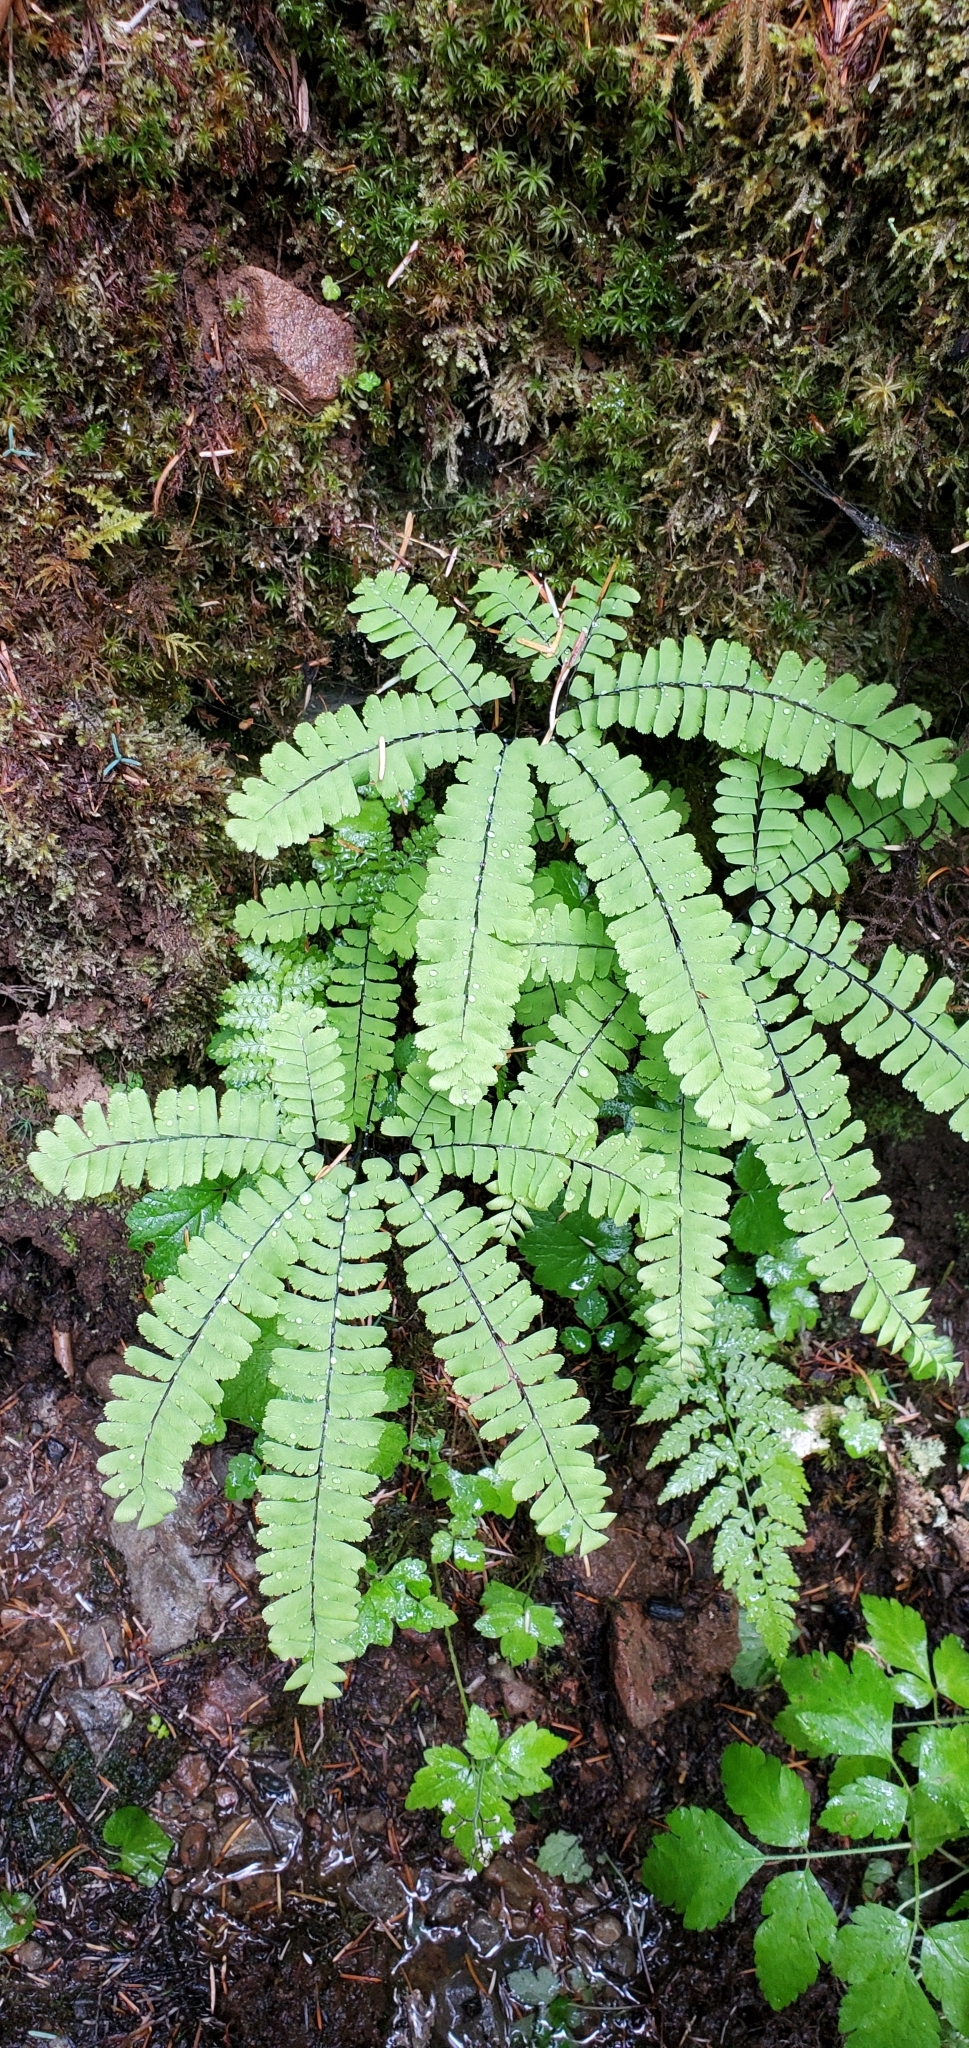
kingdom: Plantae
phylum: Tracheophyta
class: Polypodiopsida
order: Polypodiales
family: Pteridaceae
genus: Adiantum
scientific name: Adiantum aleuticum
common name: Aleutian maidenhair fern
